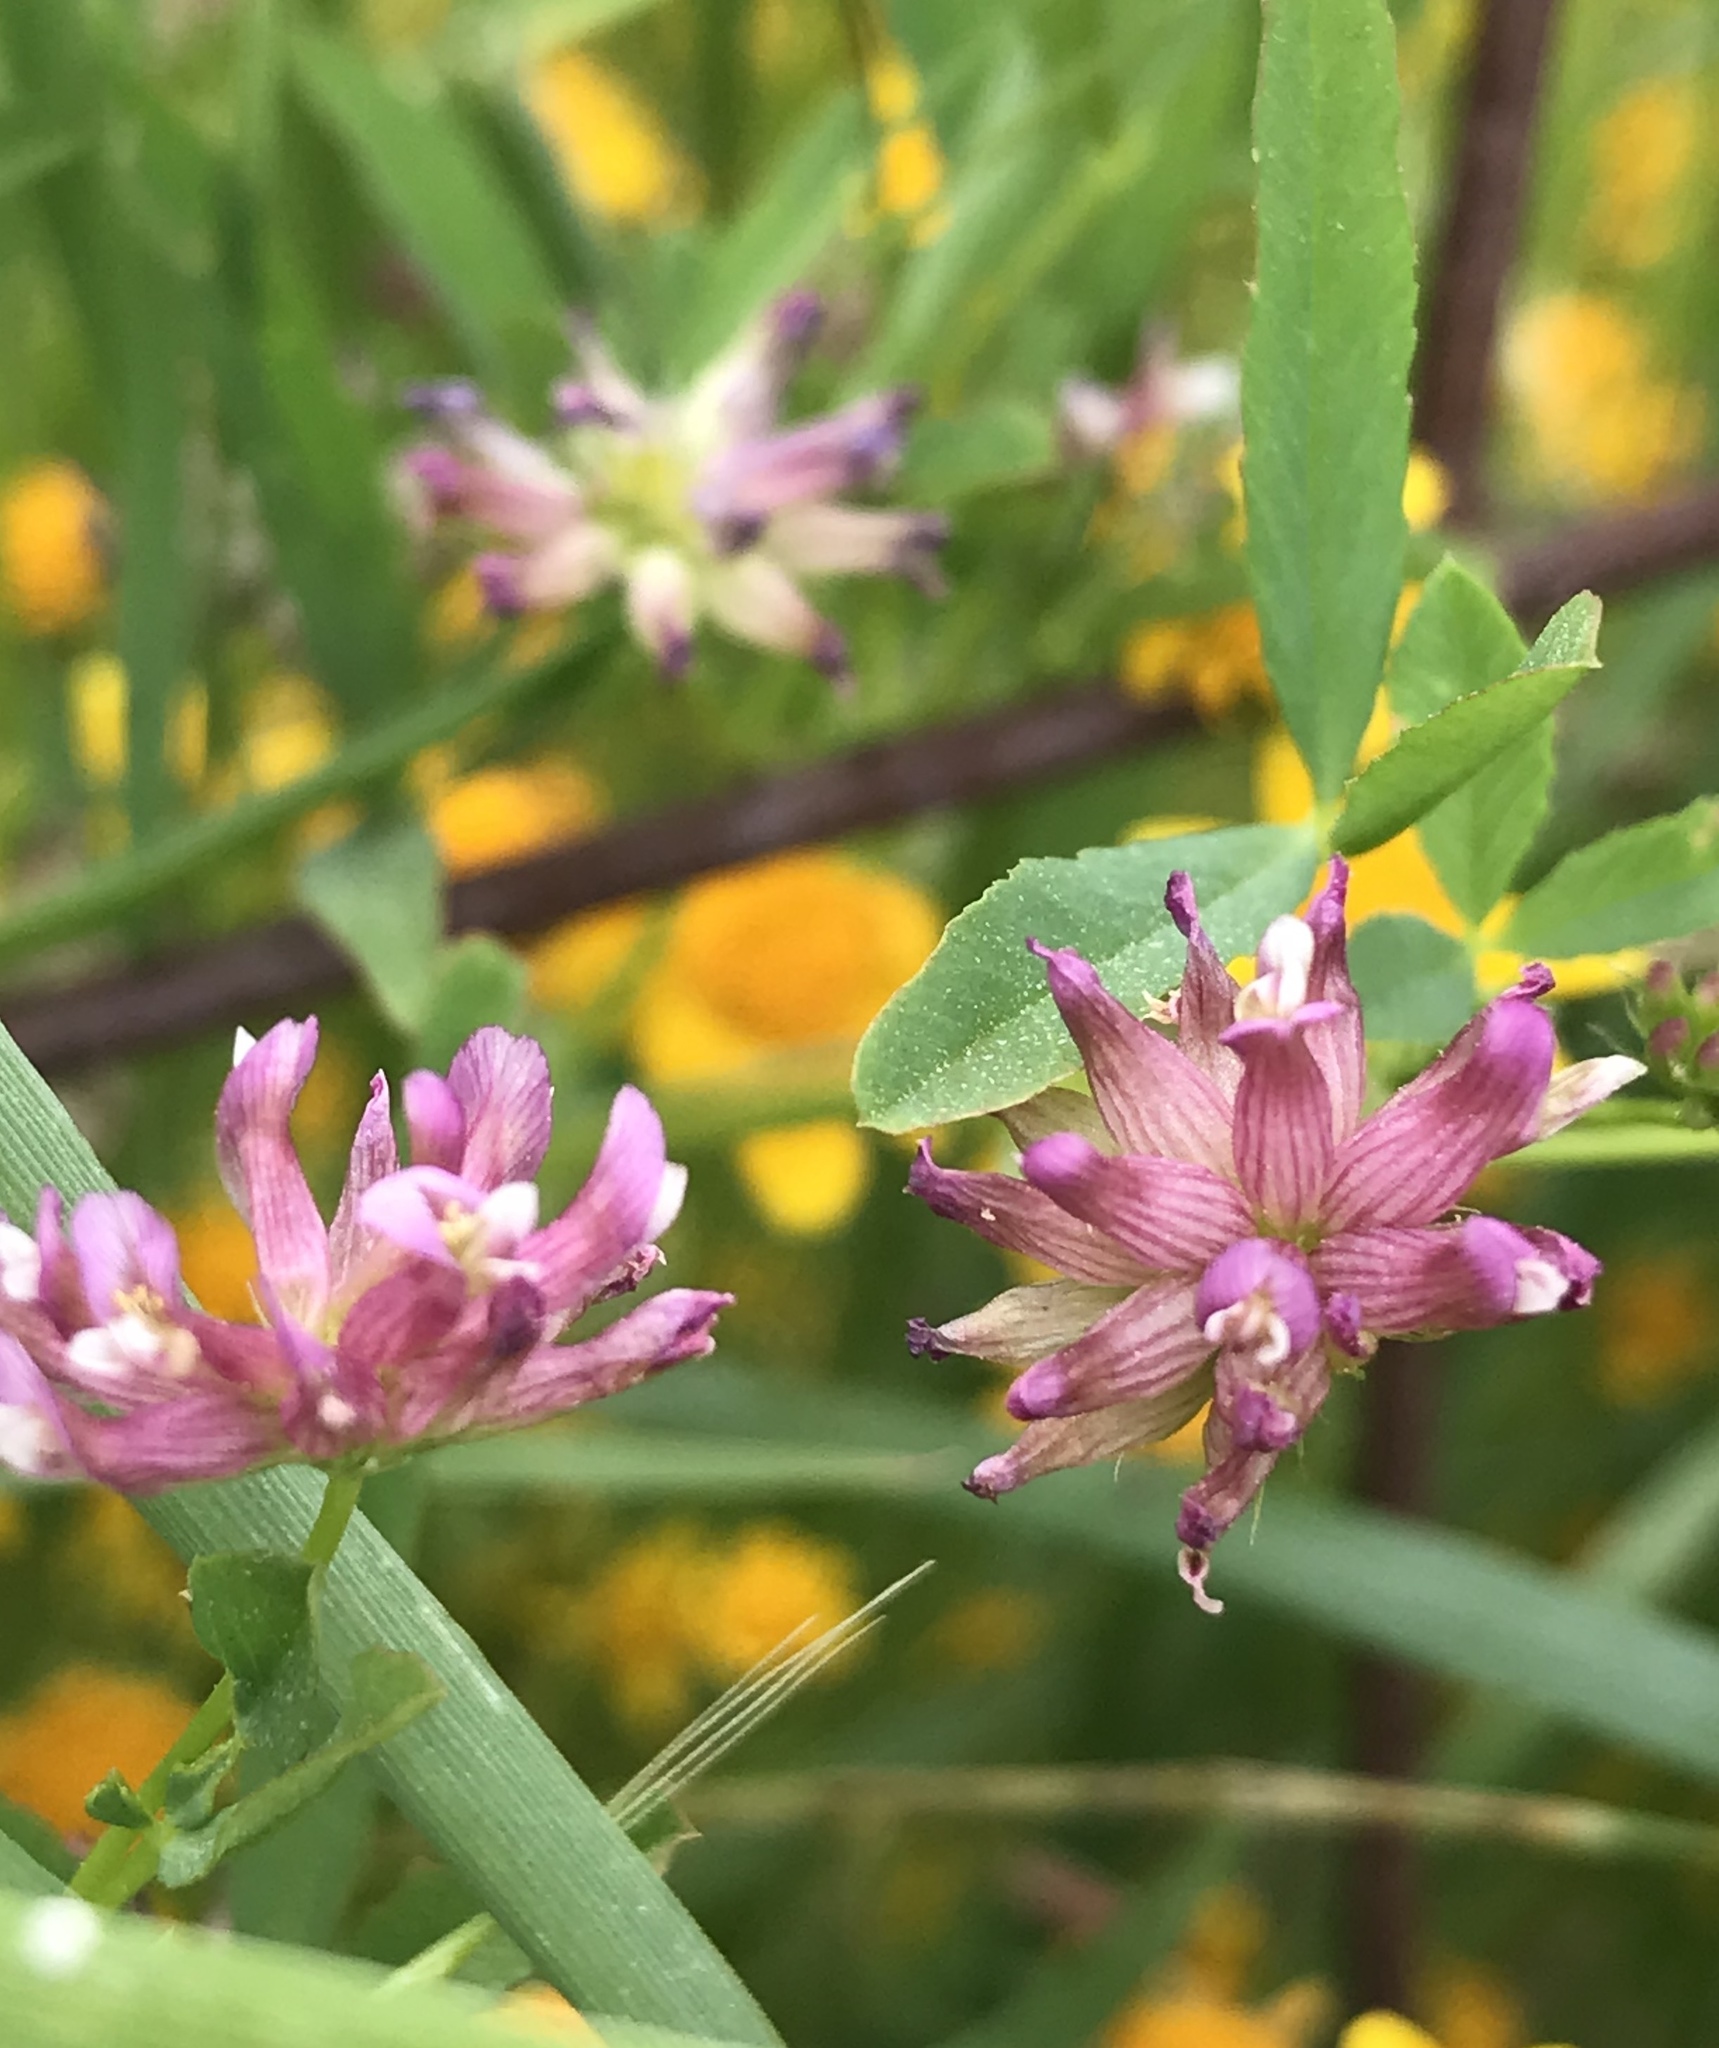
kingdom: Plantae
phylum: Tracheophyta
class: Magnoliopsida
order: Fabales
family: Fabaceae
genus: Trifolium
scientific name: Trifolium depauperatum
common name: Poverty clover
